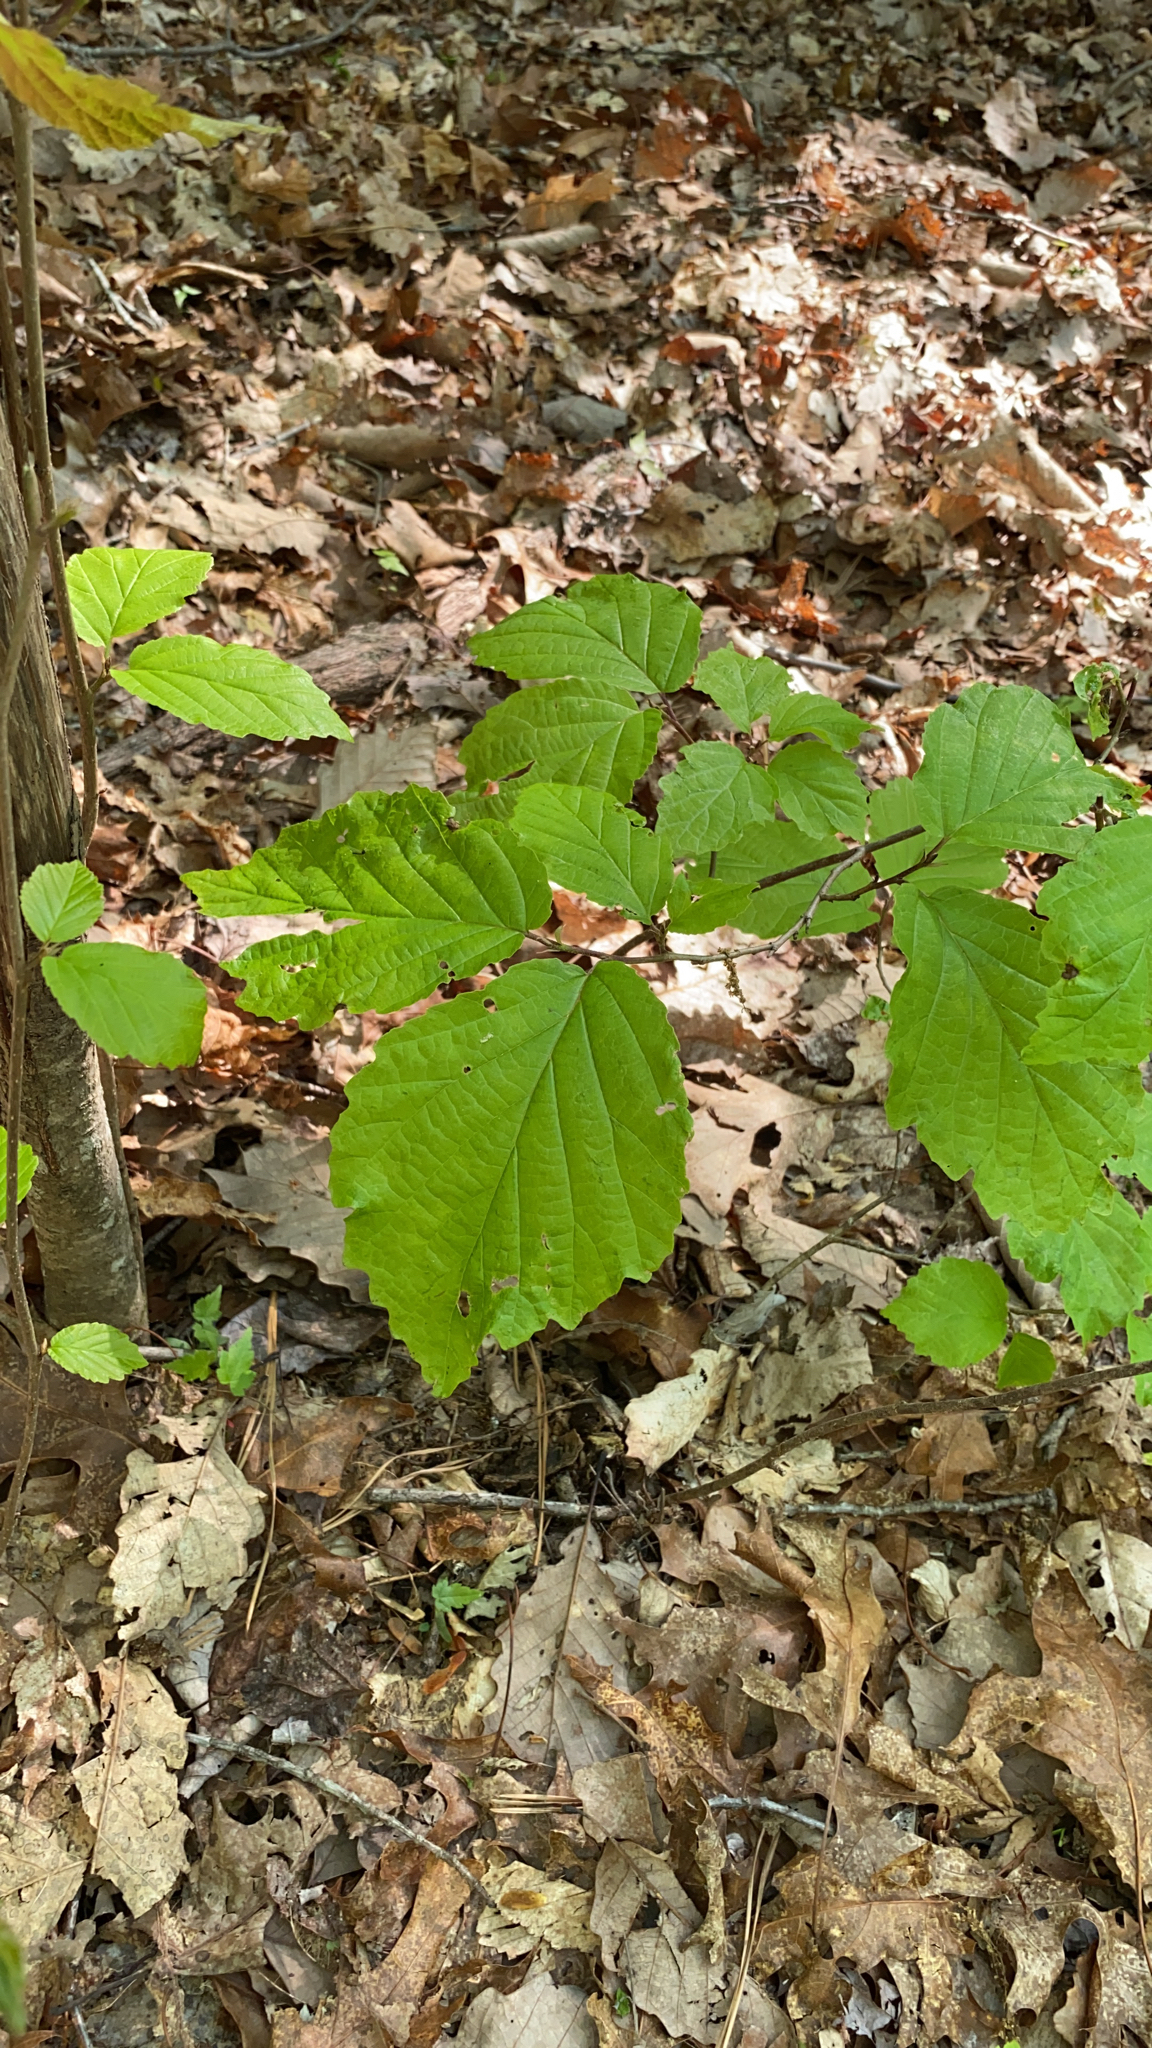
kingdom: Plantae
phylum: Tracheophyta
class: Magnoliopsida
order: Saxifragales
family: Hamamelidaceae
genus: Hamamelis
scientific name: Hamamelis virginiana
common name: Witch-hazel
